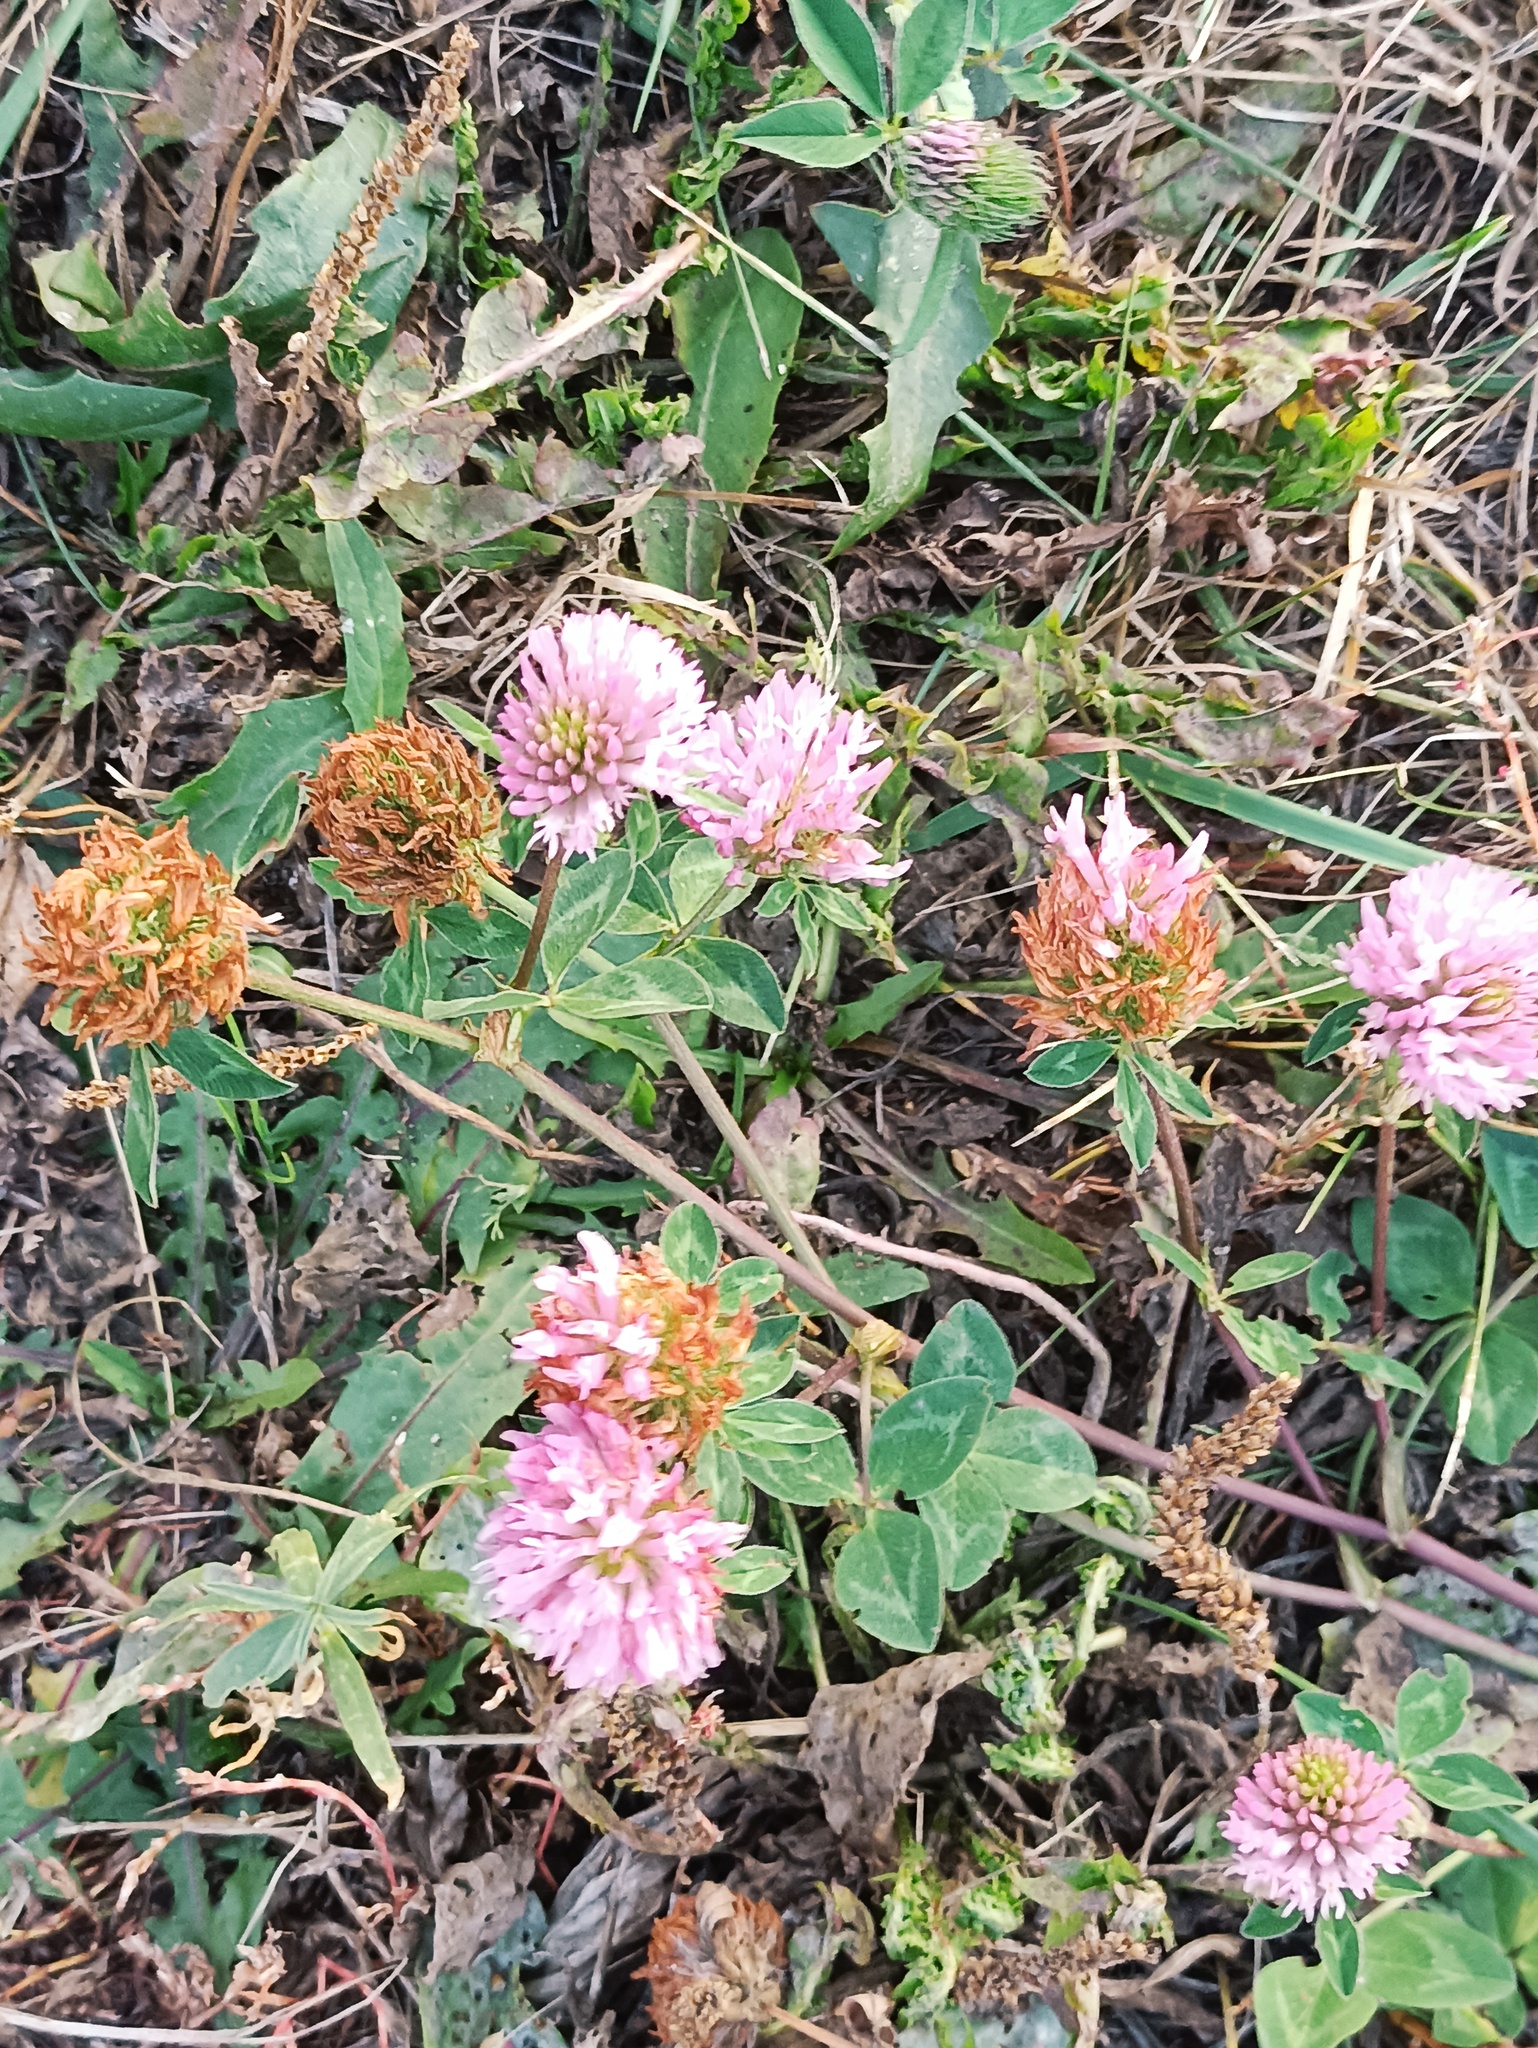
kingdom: Plantae
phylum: Tracheophyta
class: Magnoliopsida
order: Fabales
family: Fabaceae
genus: Trifolium
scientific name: Trifolium pratense
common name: Red clover
